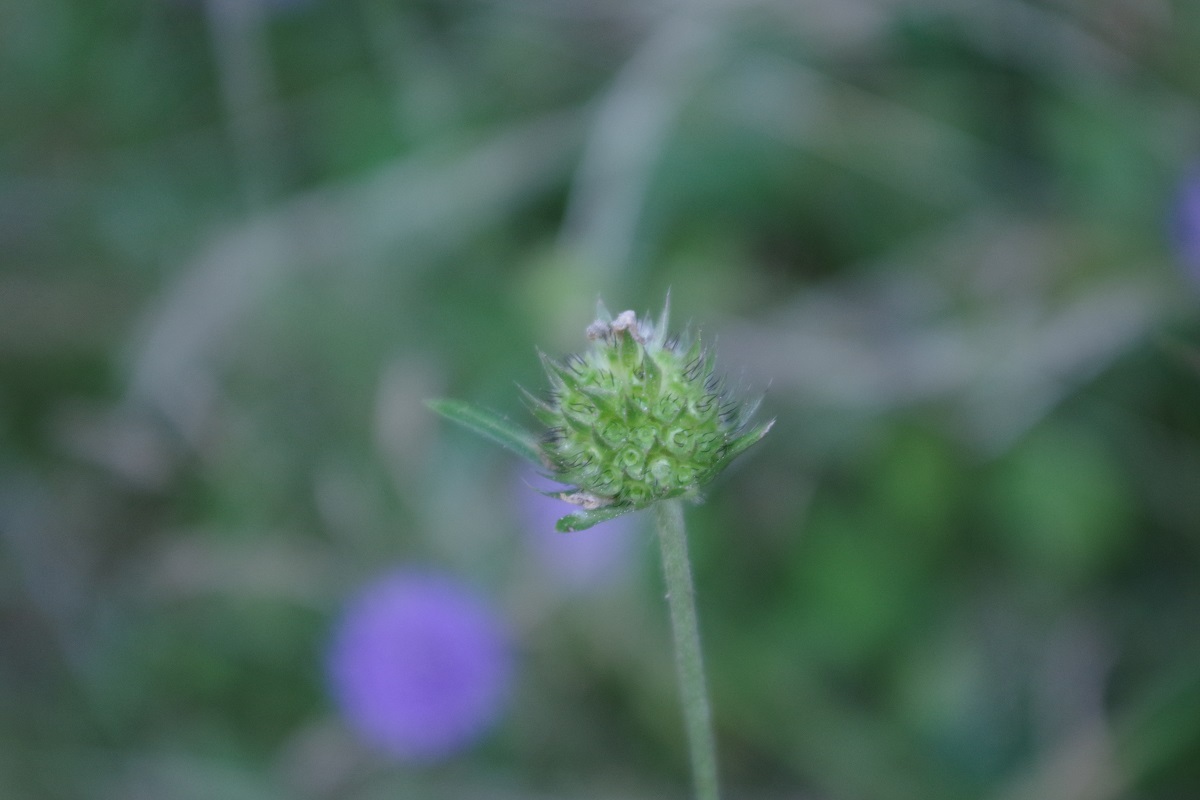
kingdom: Plantae
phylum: Tracheophyta
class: Magnoliopsida
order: Dipsacales
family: Caprifoliaceae
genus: Succisa
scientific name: Succisa pratensis
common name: Devil's-bit
